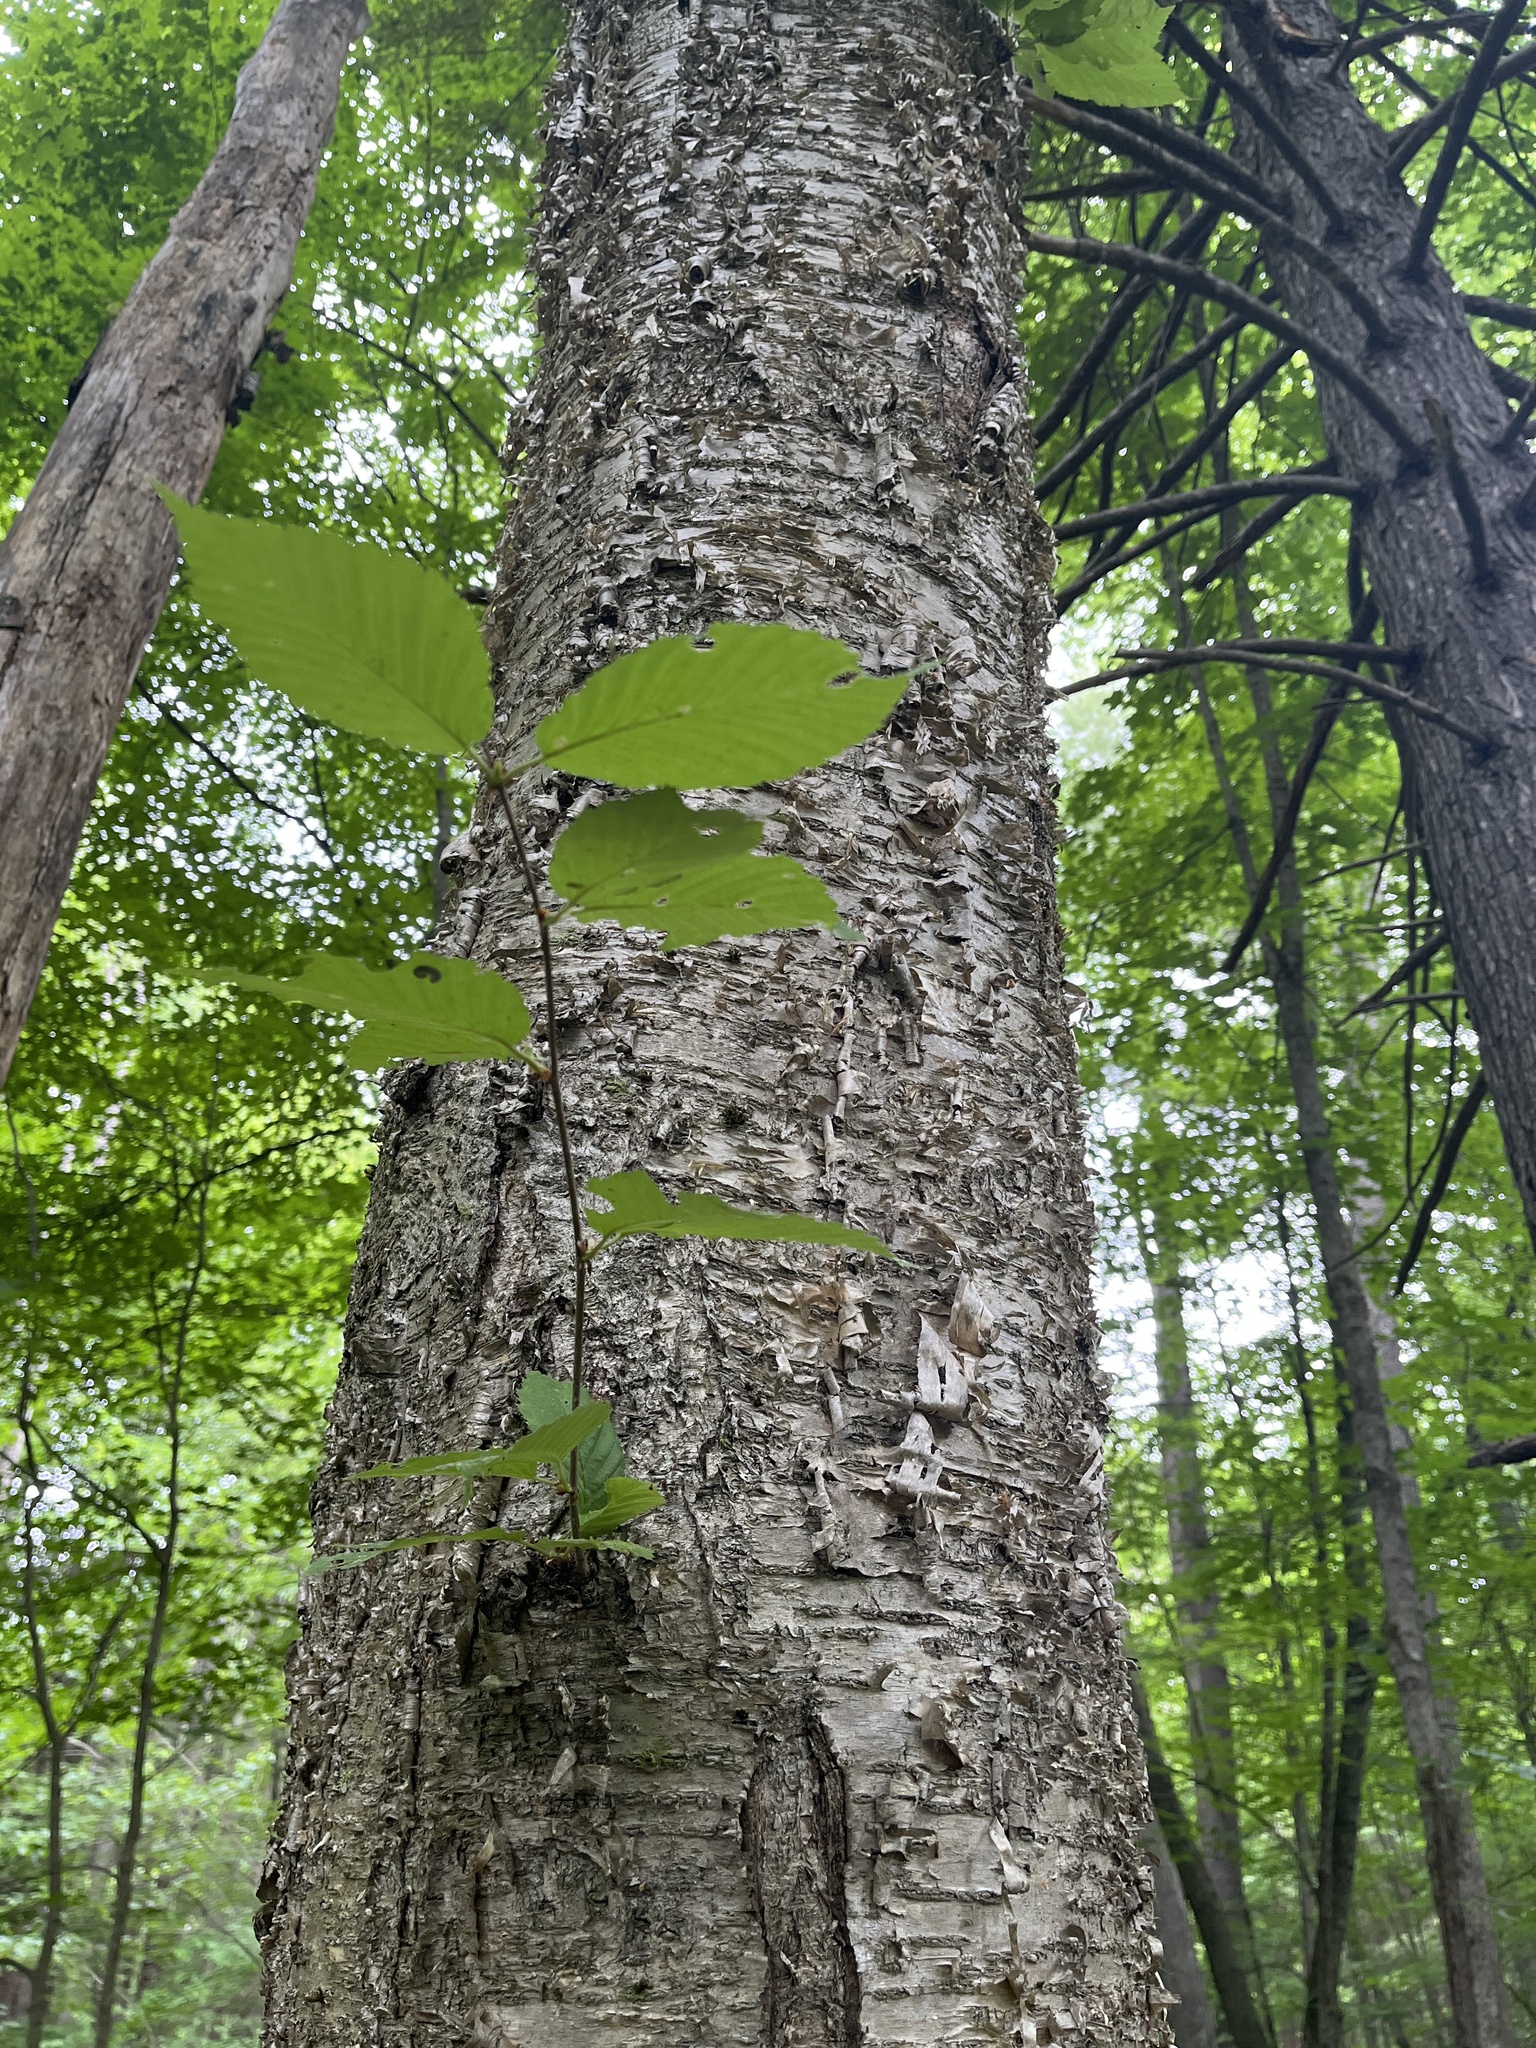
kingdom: Plantae
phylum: Tracheophyta
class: Magnoliopsida
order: Fagales
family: Betulaceae
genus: Betula
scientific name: Betula alleghaniensis
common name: Yellow birch
